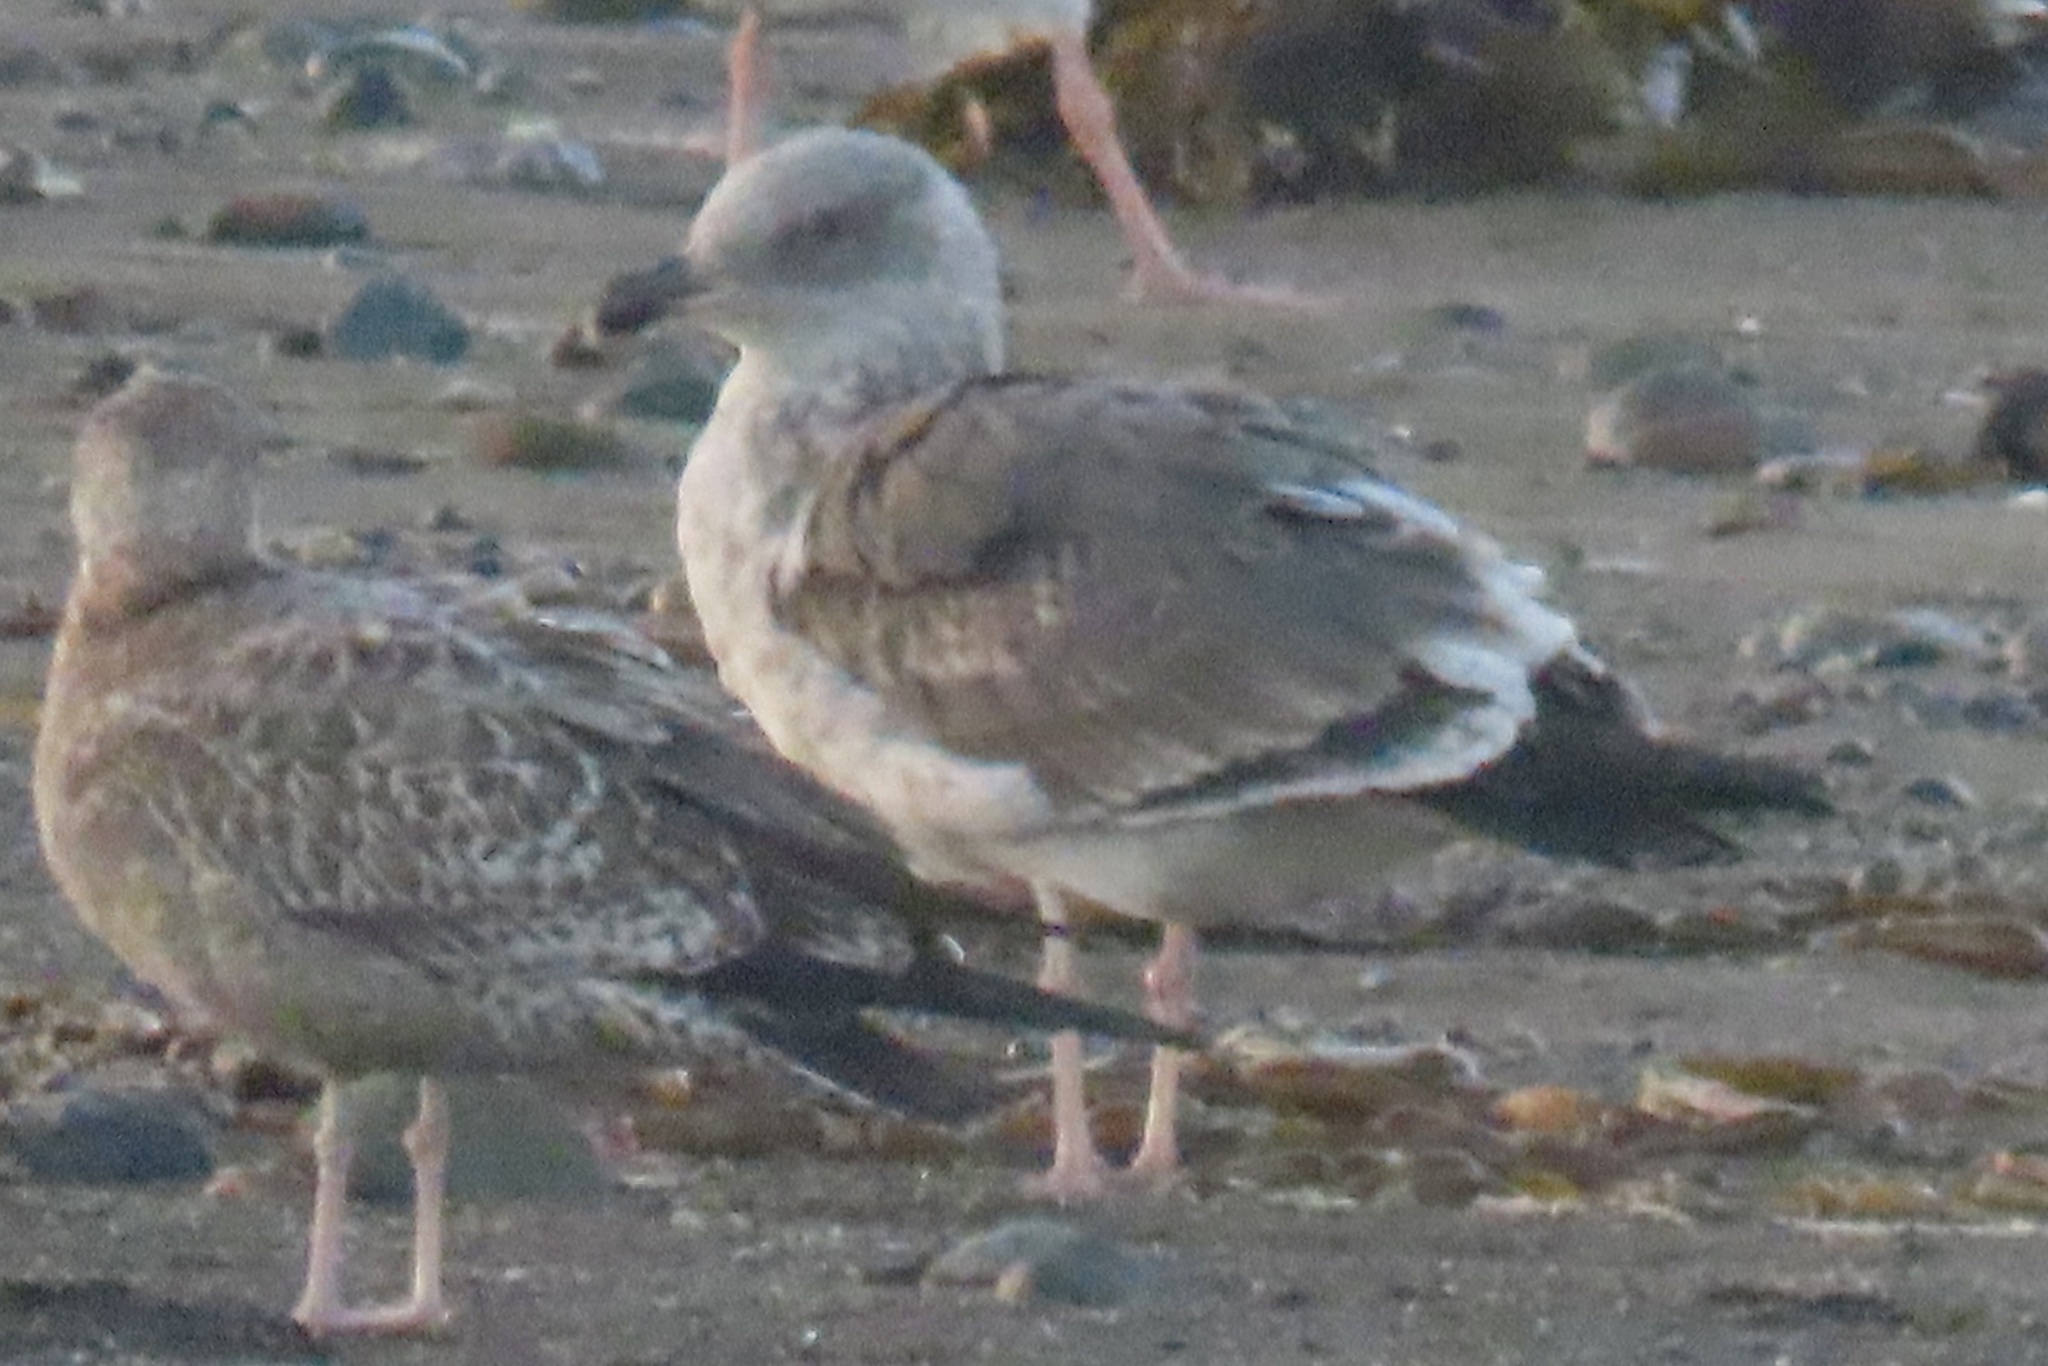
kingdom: Animalia
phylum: Chordata
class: Aves
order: Charadriiformes
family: Laridae
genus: Larus
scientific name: Larus occidentalis
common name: Western gull
